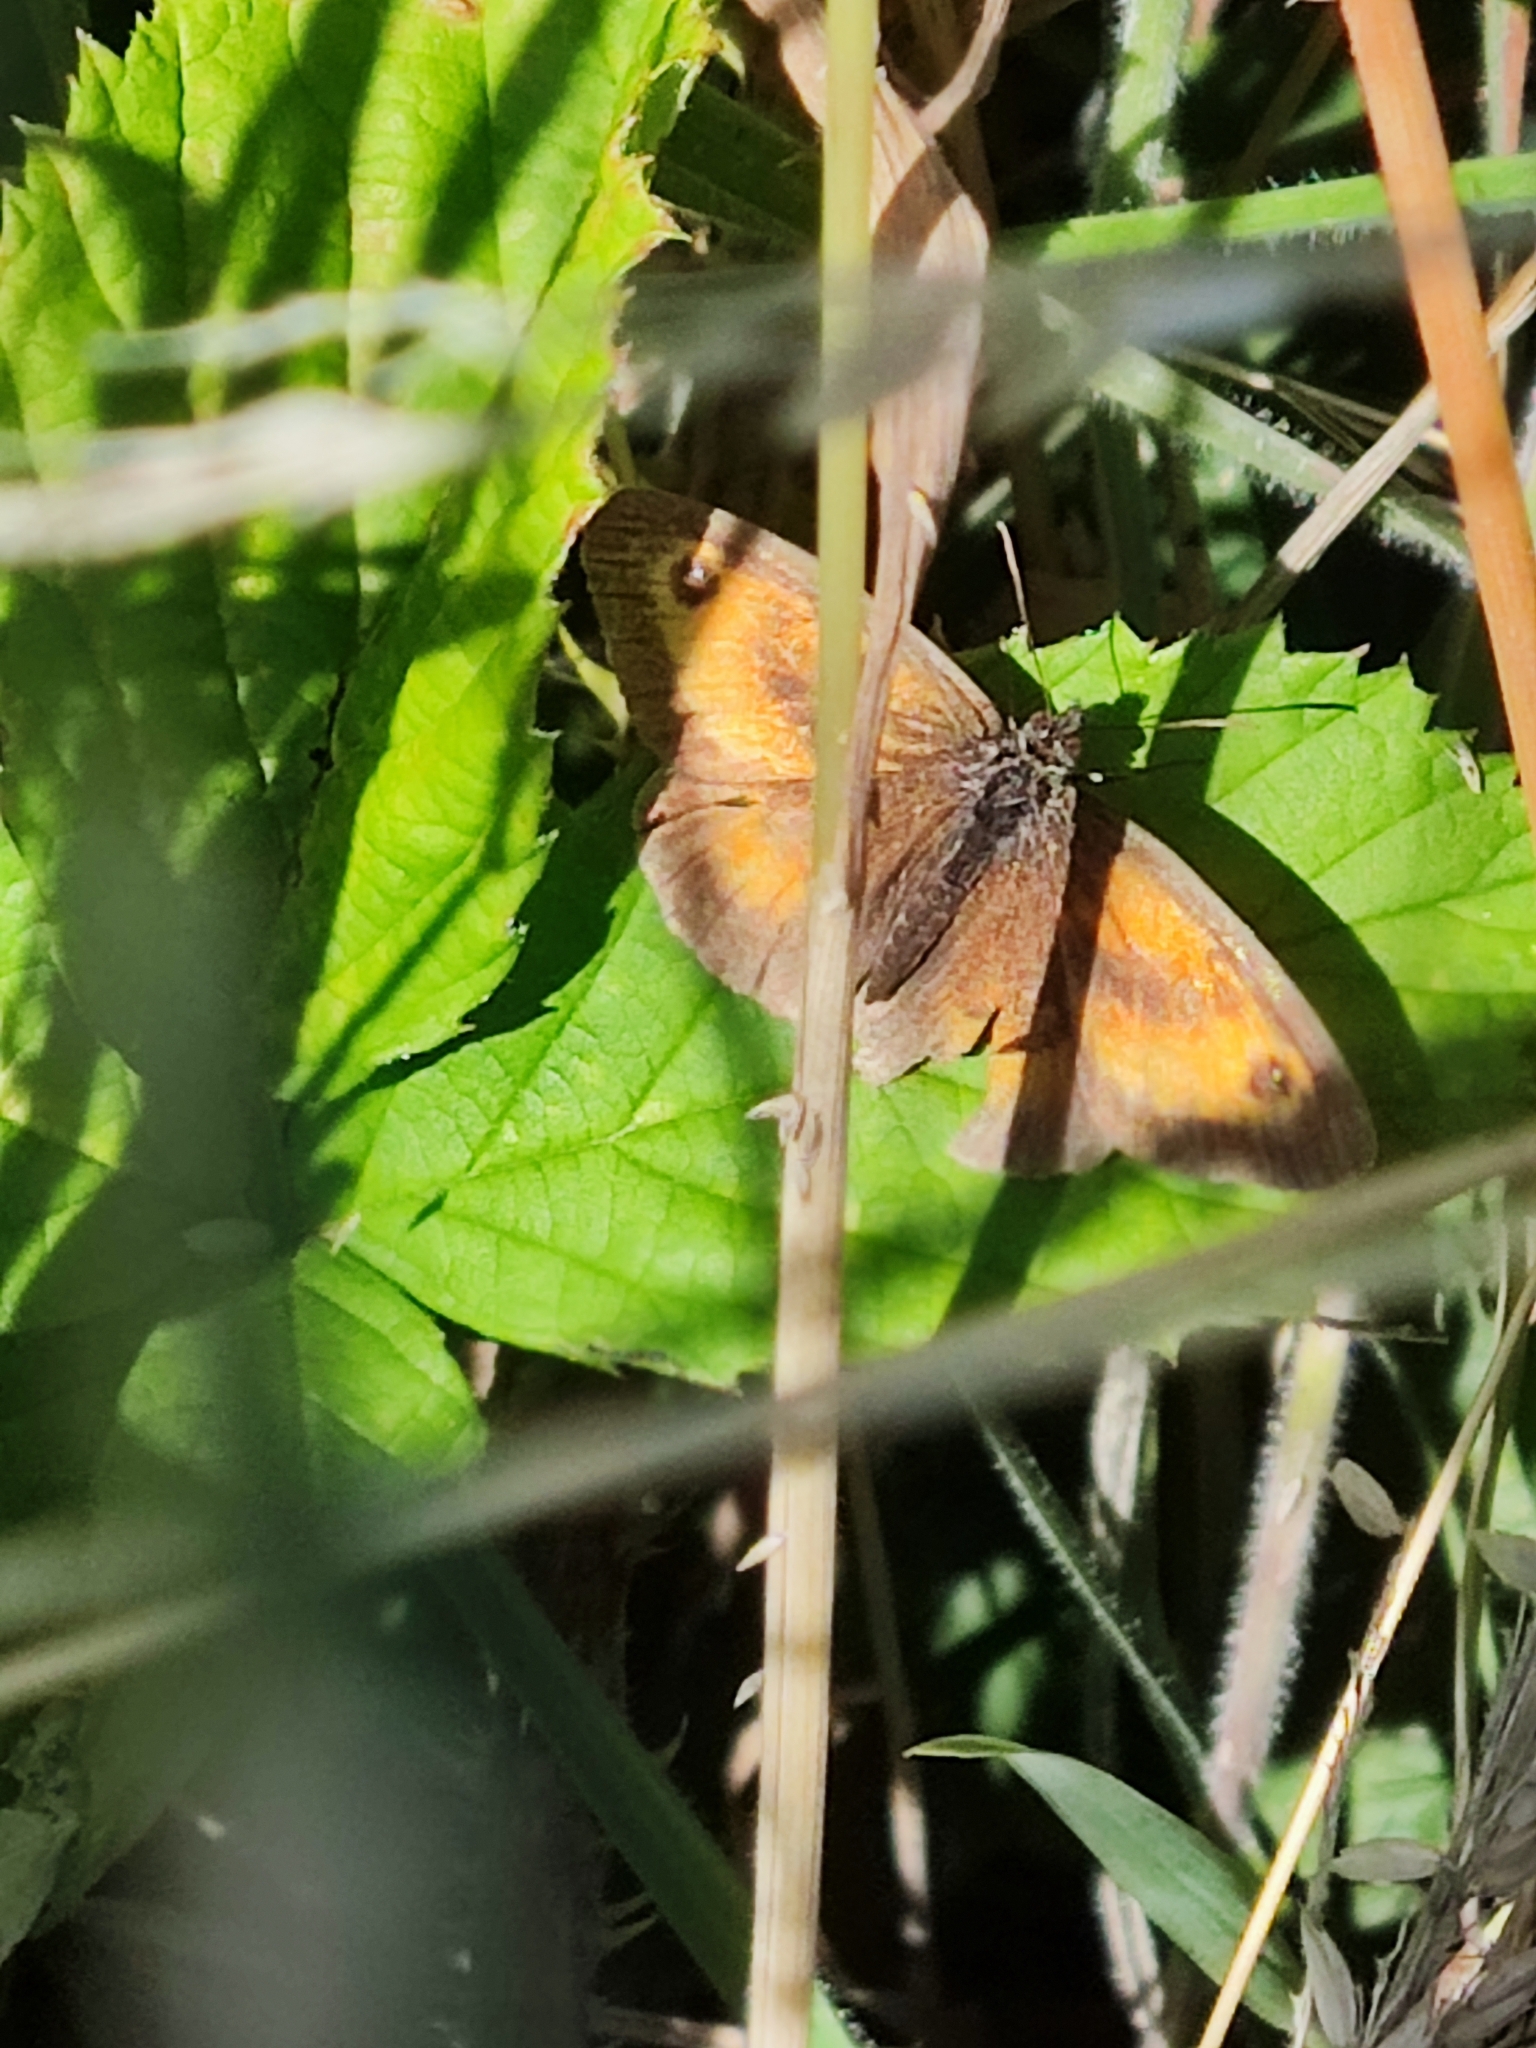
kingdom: Animalia
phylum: Arthropoda
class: Insecta
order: Lepidoptera
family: Nymphalidae
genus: Pyronia
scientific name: Pyronia tithonus
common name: Gatekeeper
